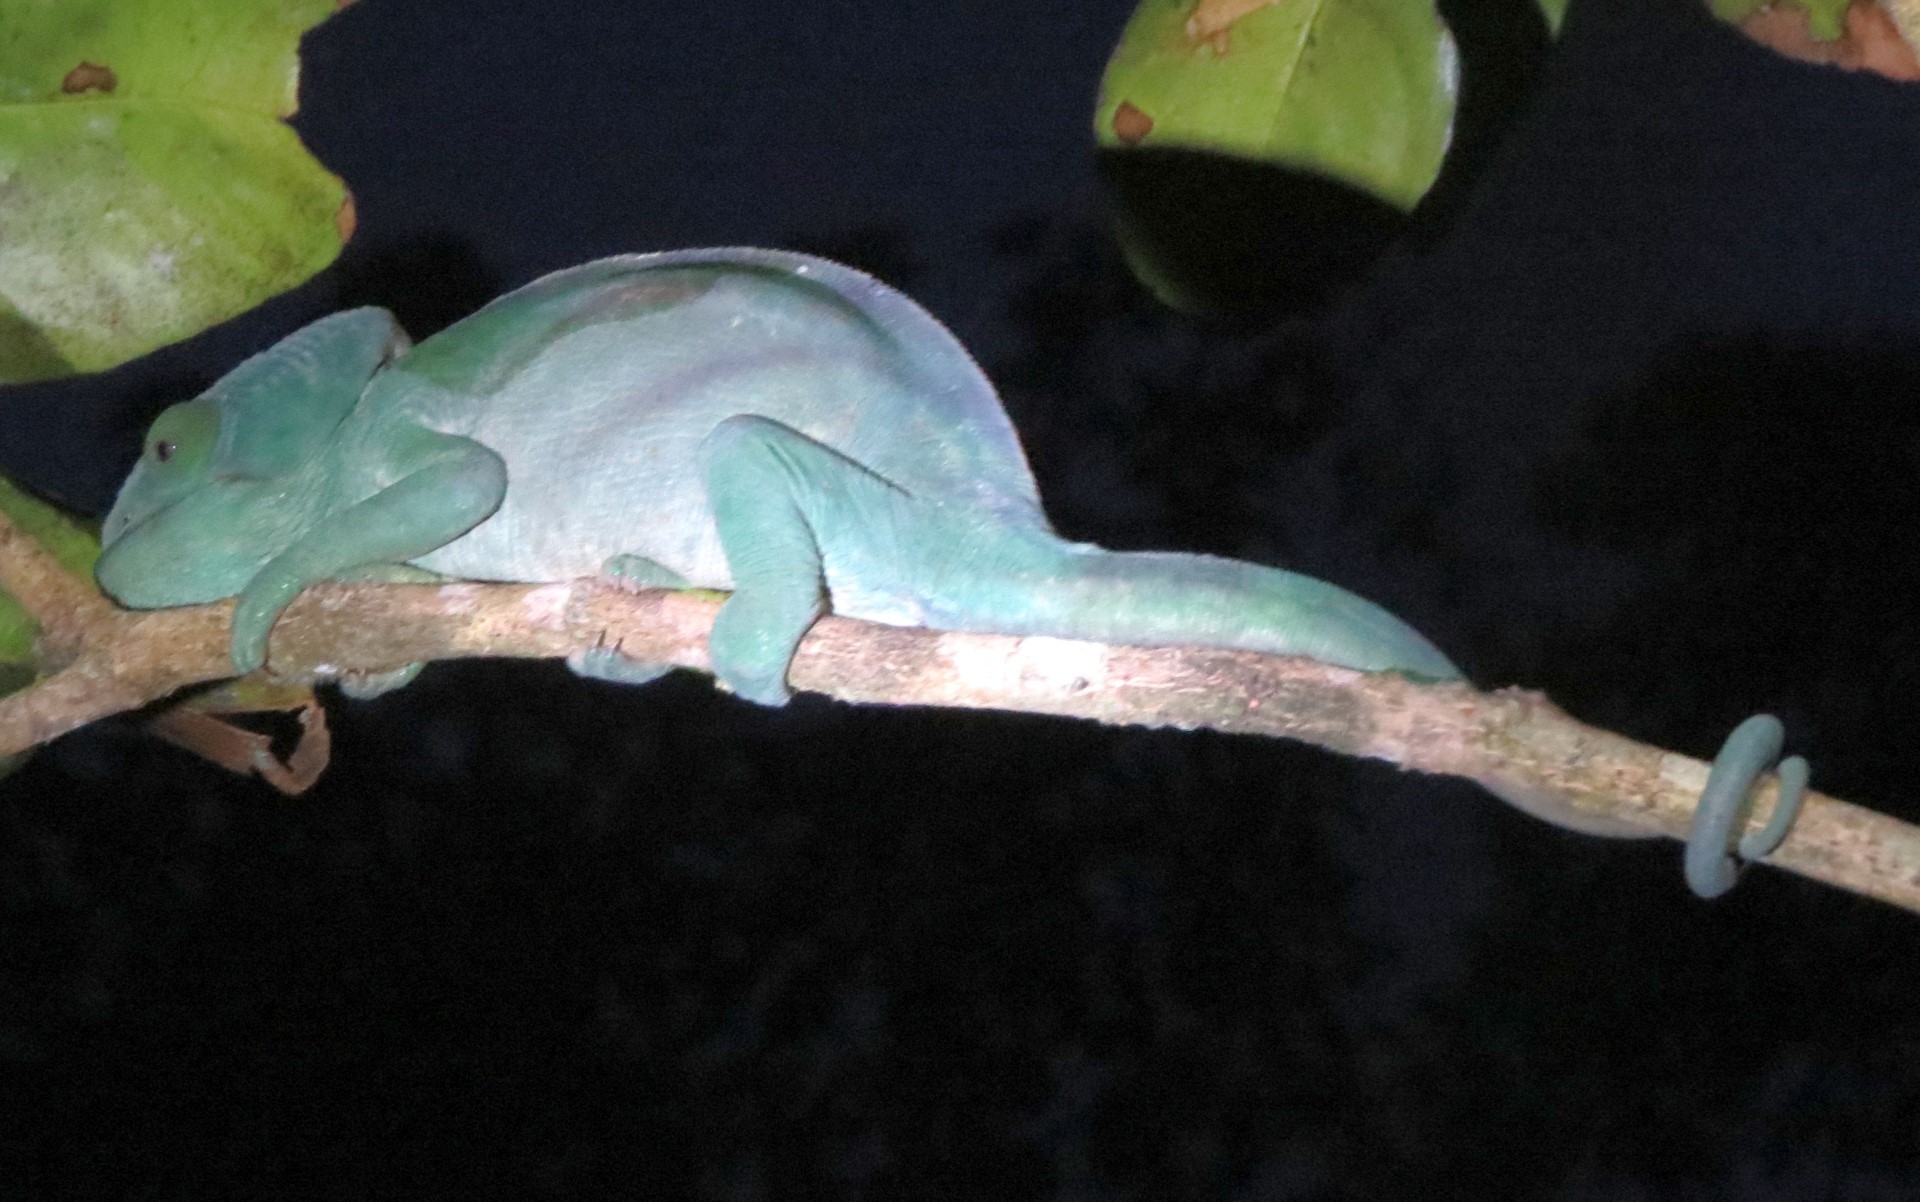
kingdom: Animalia
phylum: Chordata
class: Squamata
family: Chamaeleonidae
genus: Calumma
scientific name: Calumma parsonii
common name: Parson's chameleon
